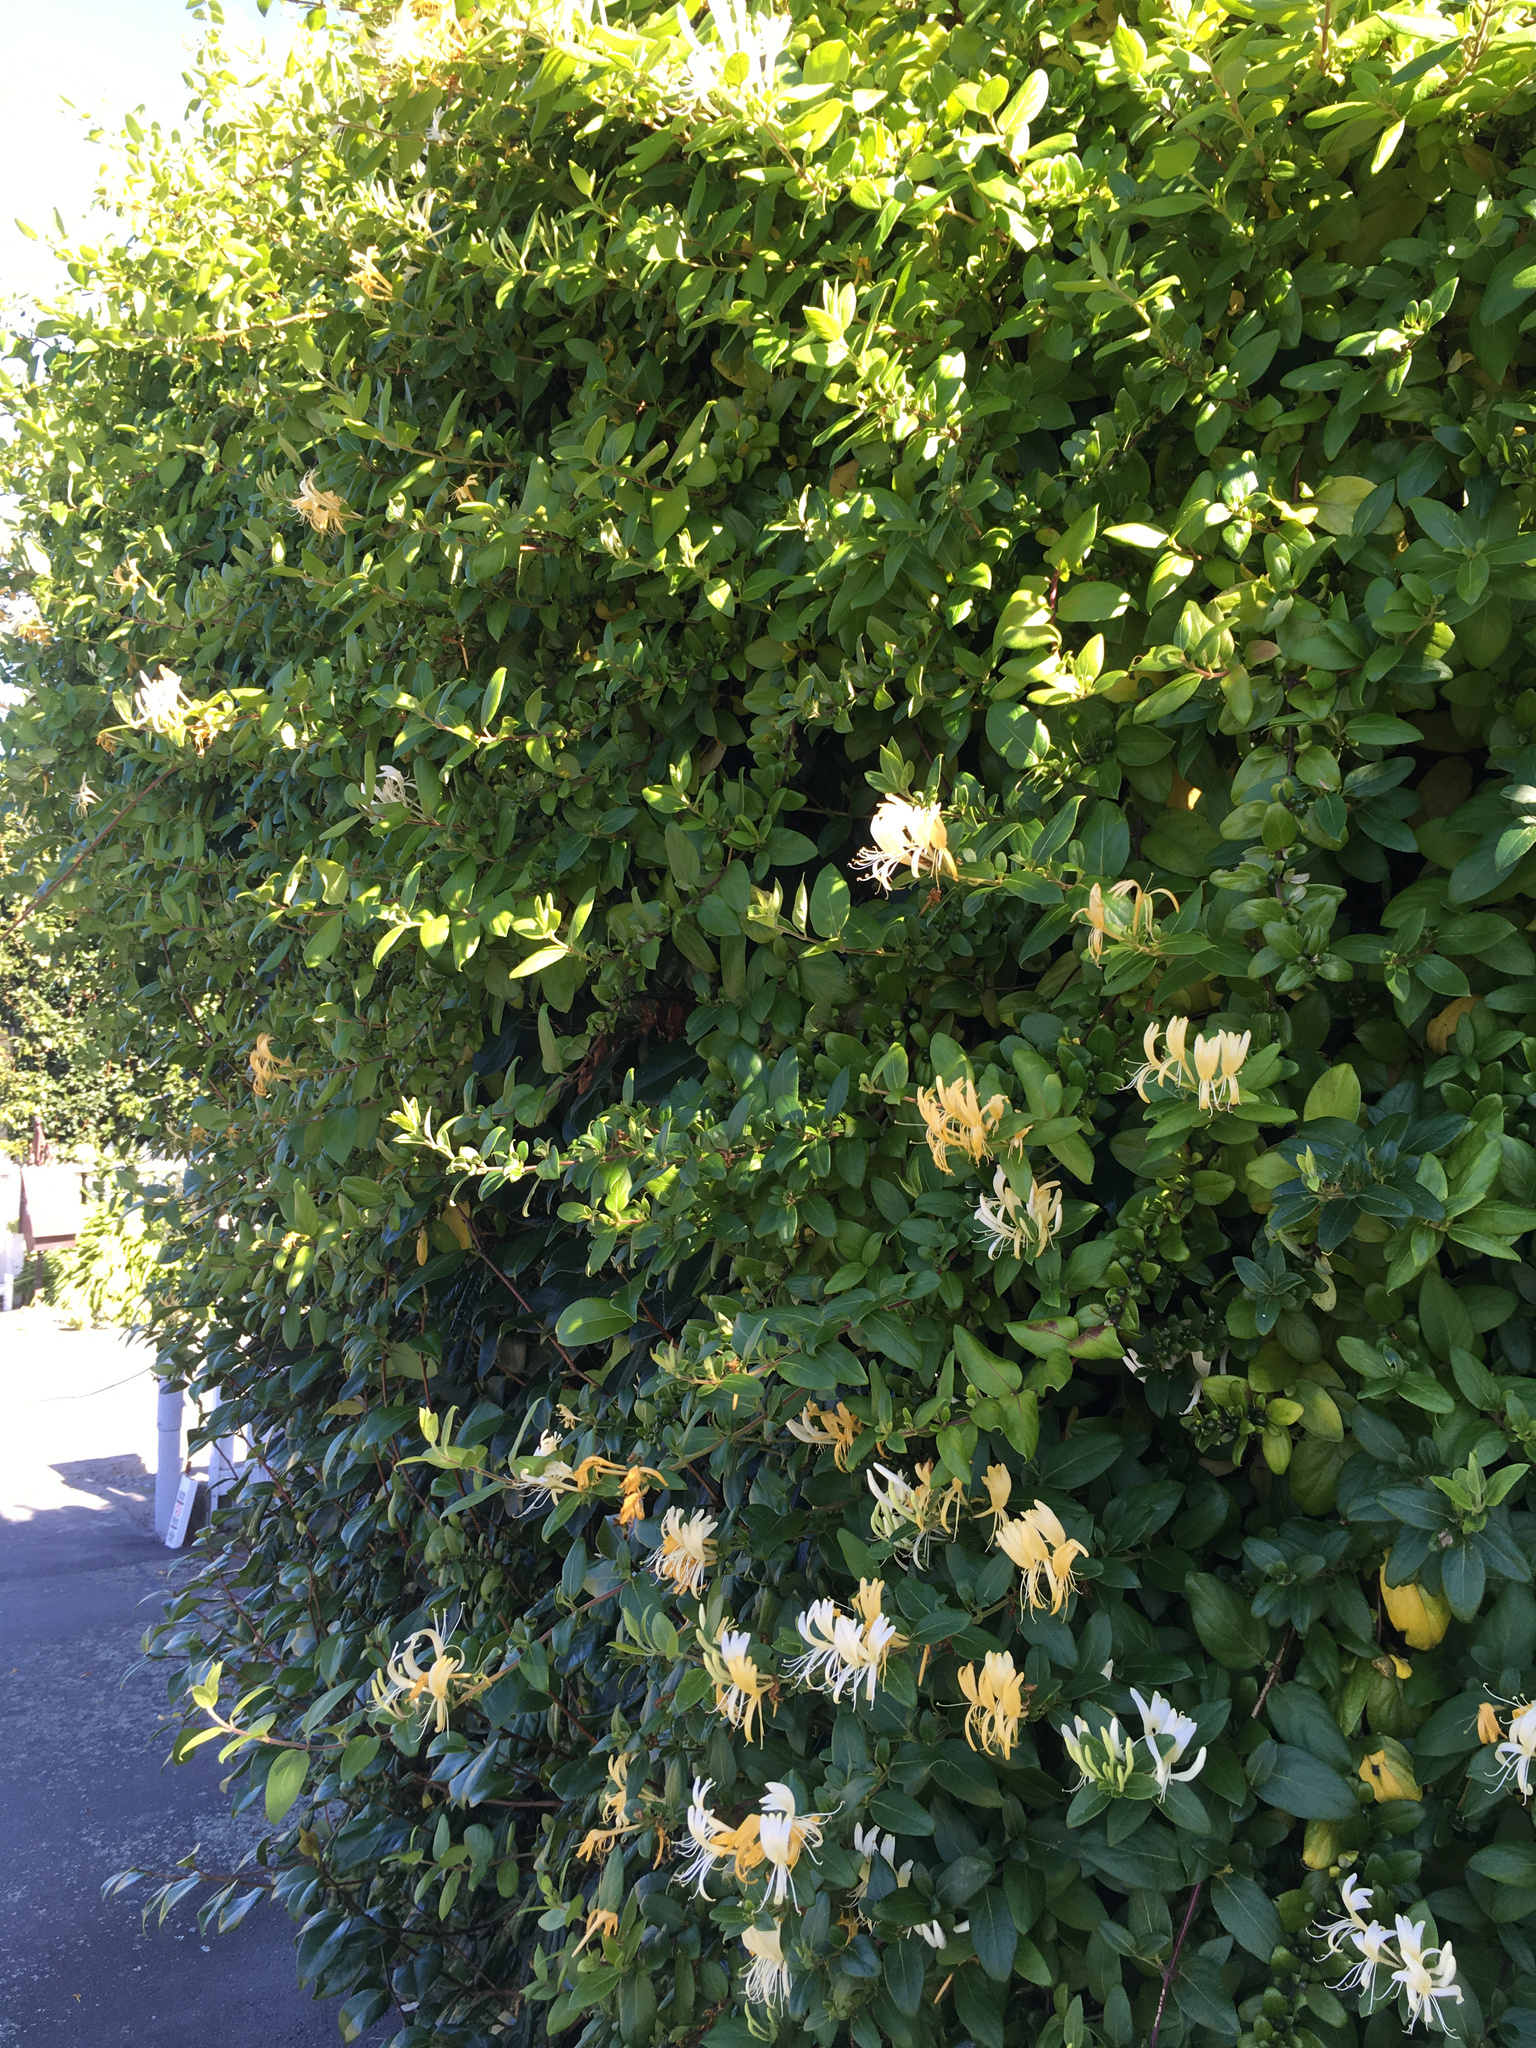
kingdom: Plantae
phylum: Tracheophyta
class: Magnoliopsida
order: Dipsacales
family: Caprifoliaceae
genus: Lonicera
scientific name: Lonicera japonica
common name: Japanese honeysuckle
